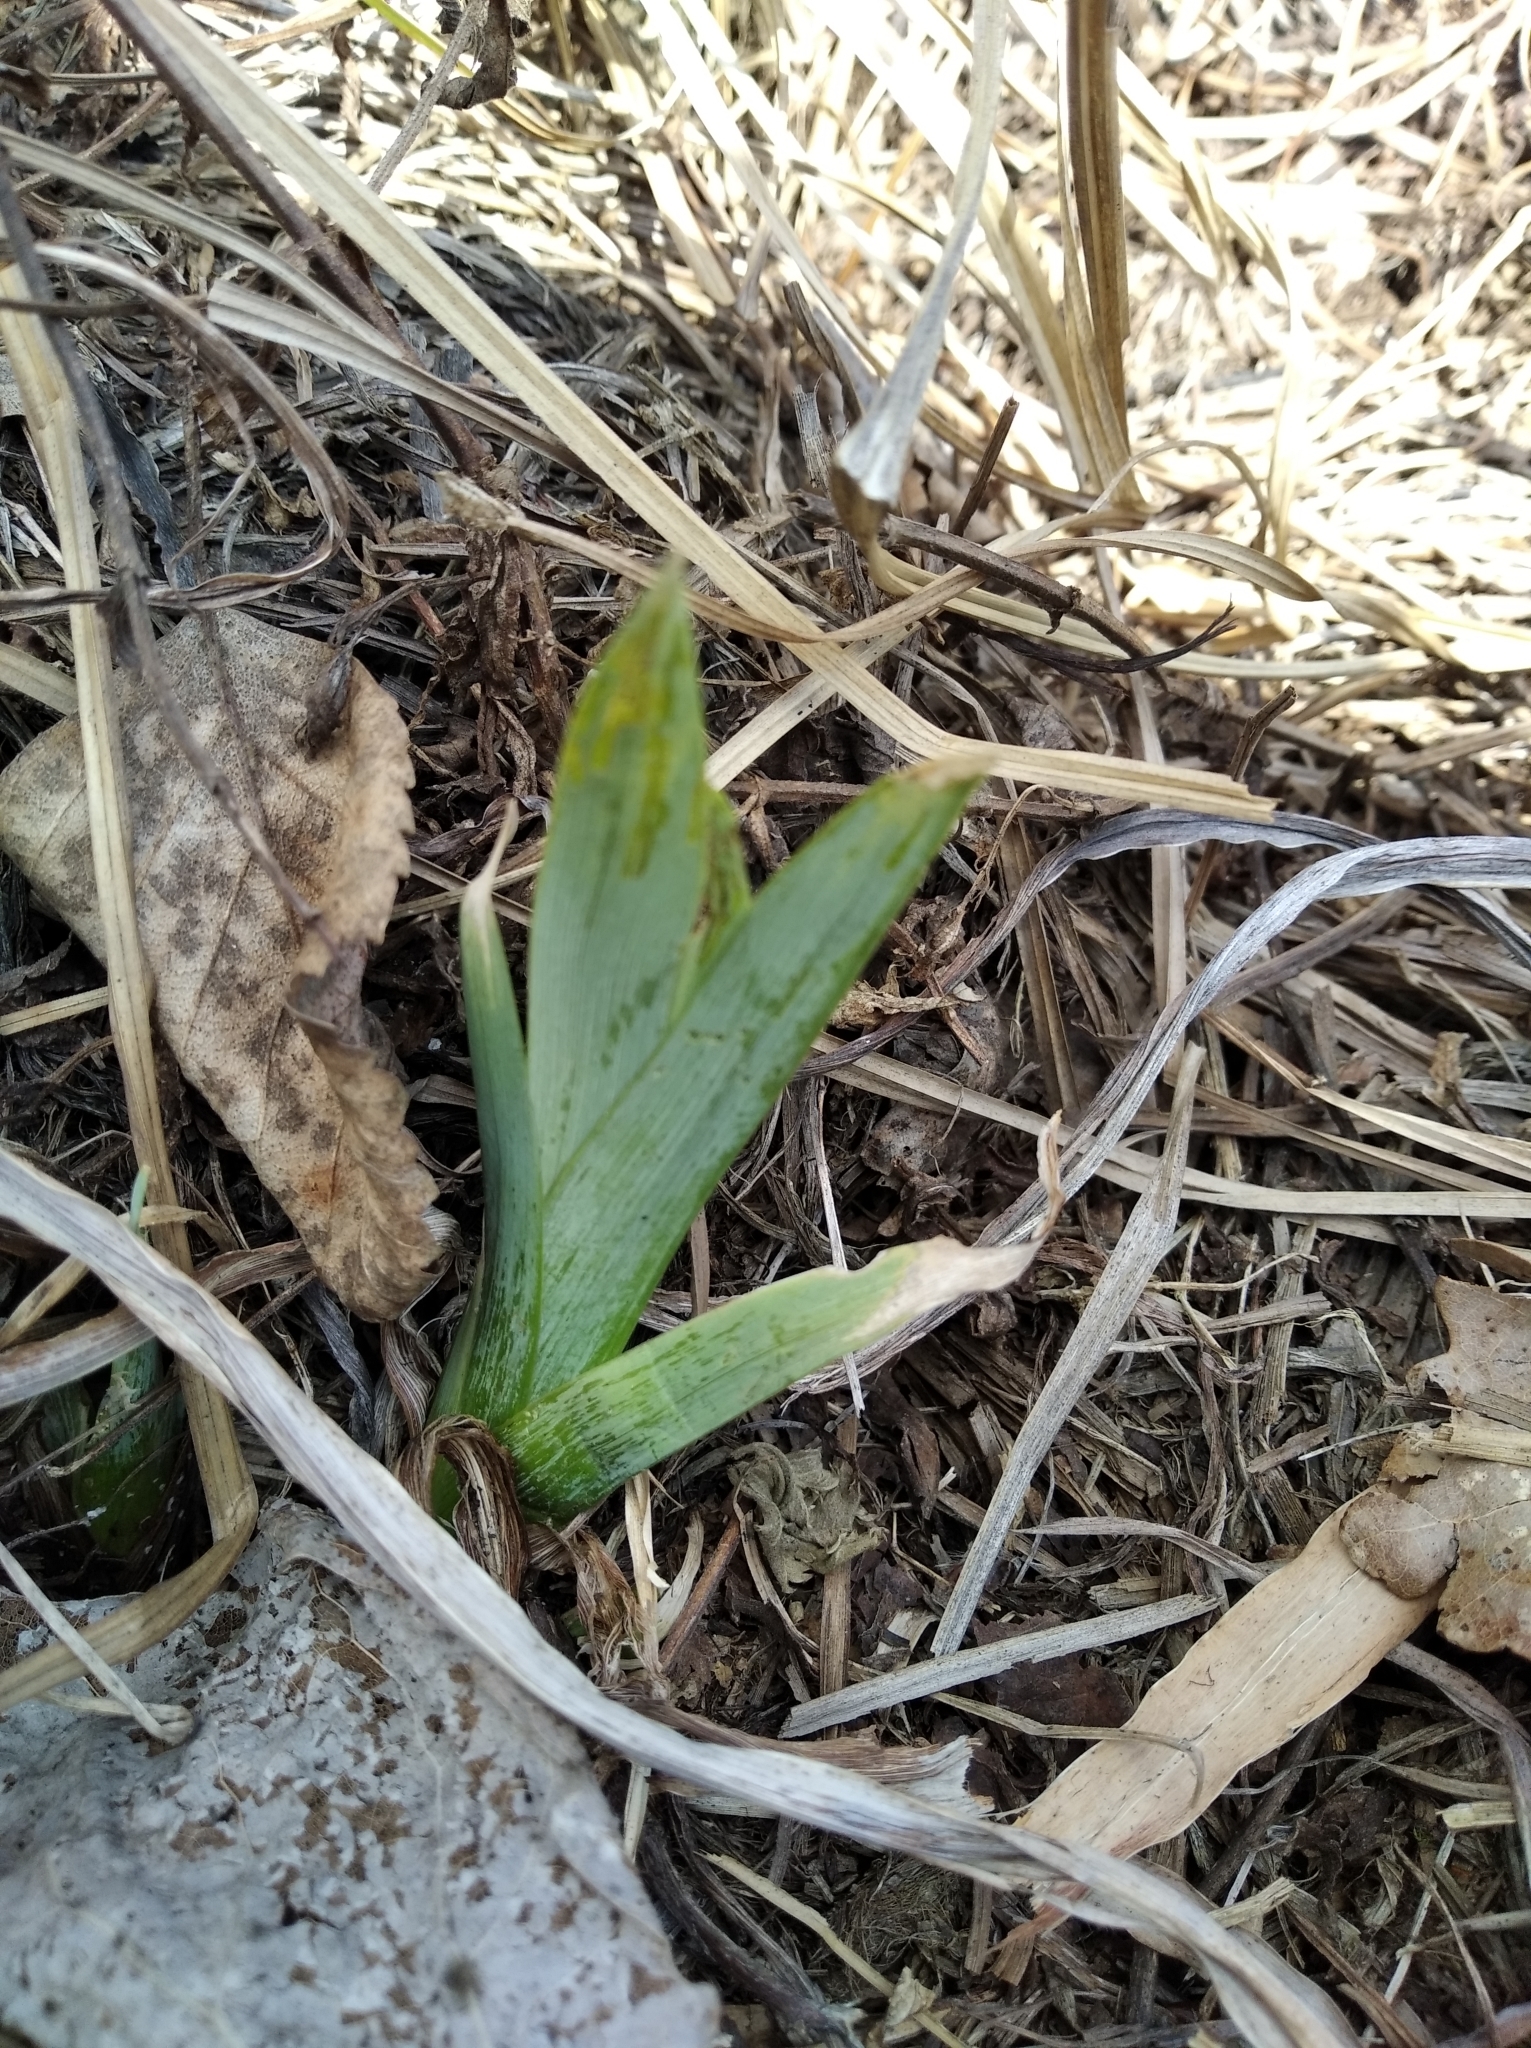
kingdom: Plantae
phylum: Tracheophyta
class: Liliopsida
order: Asparagales
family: Iridaceae
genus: Iris
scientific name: Iris pseudacorus
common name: Yellow flag
